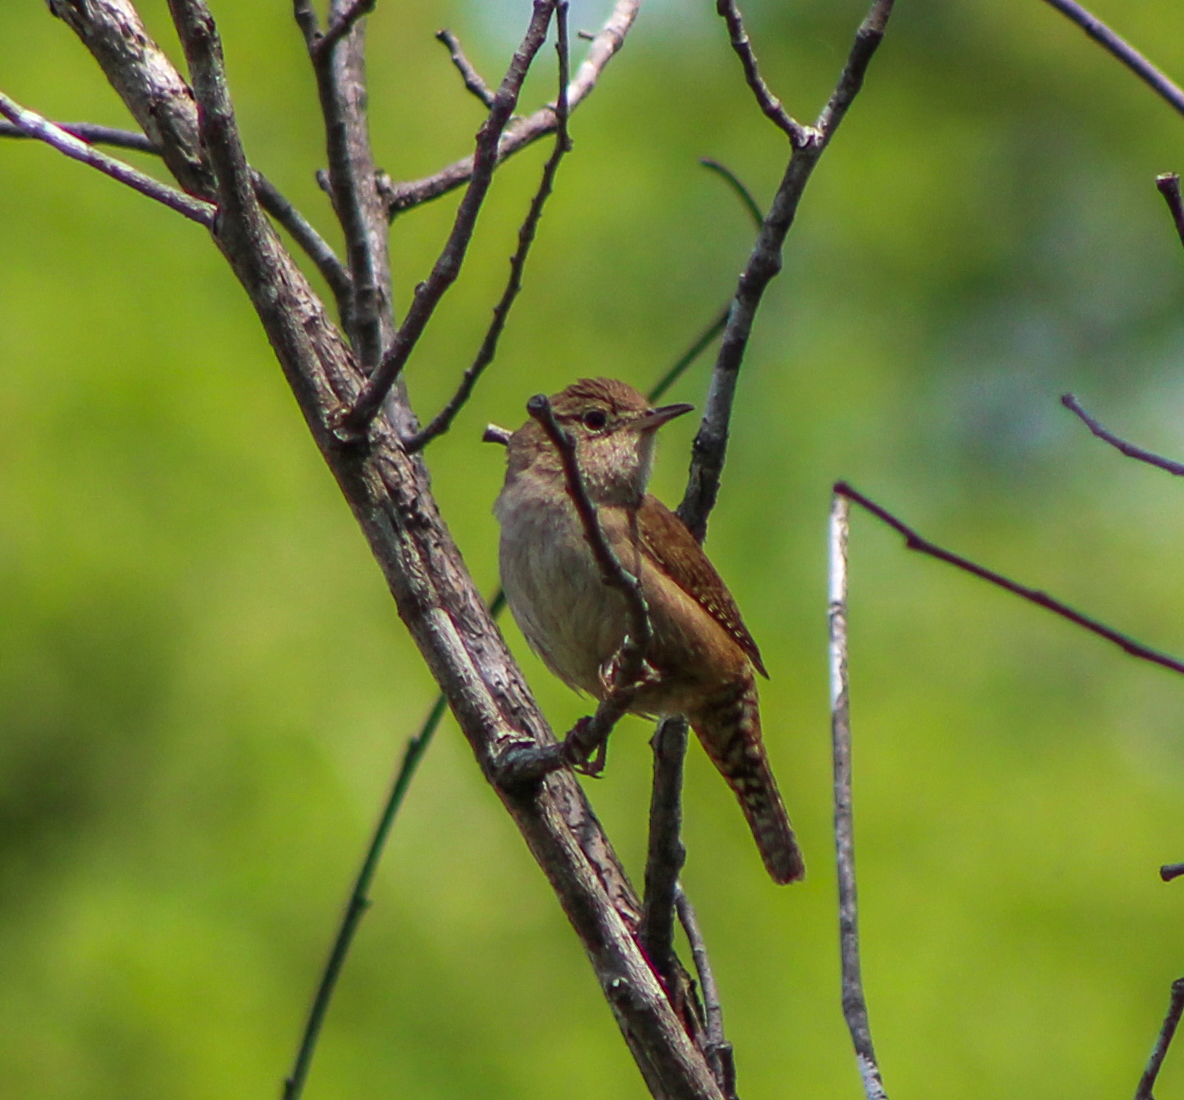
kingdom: Animalia
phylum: Chordata
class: Aves
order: Passeriformes
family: Troglodytidae
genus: Troglodytes
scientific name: Troglodytes aedon
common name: House wren
